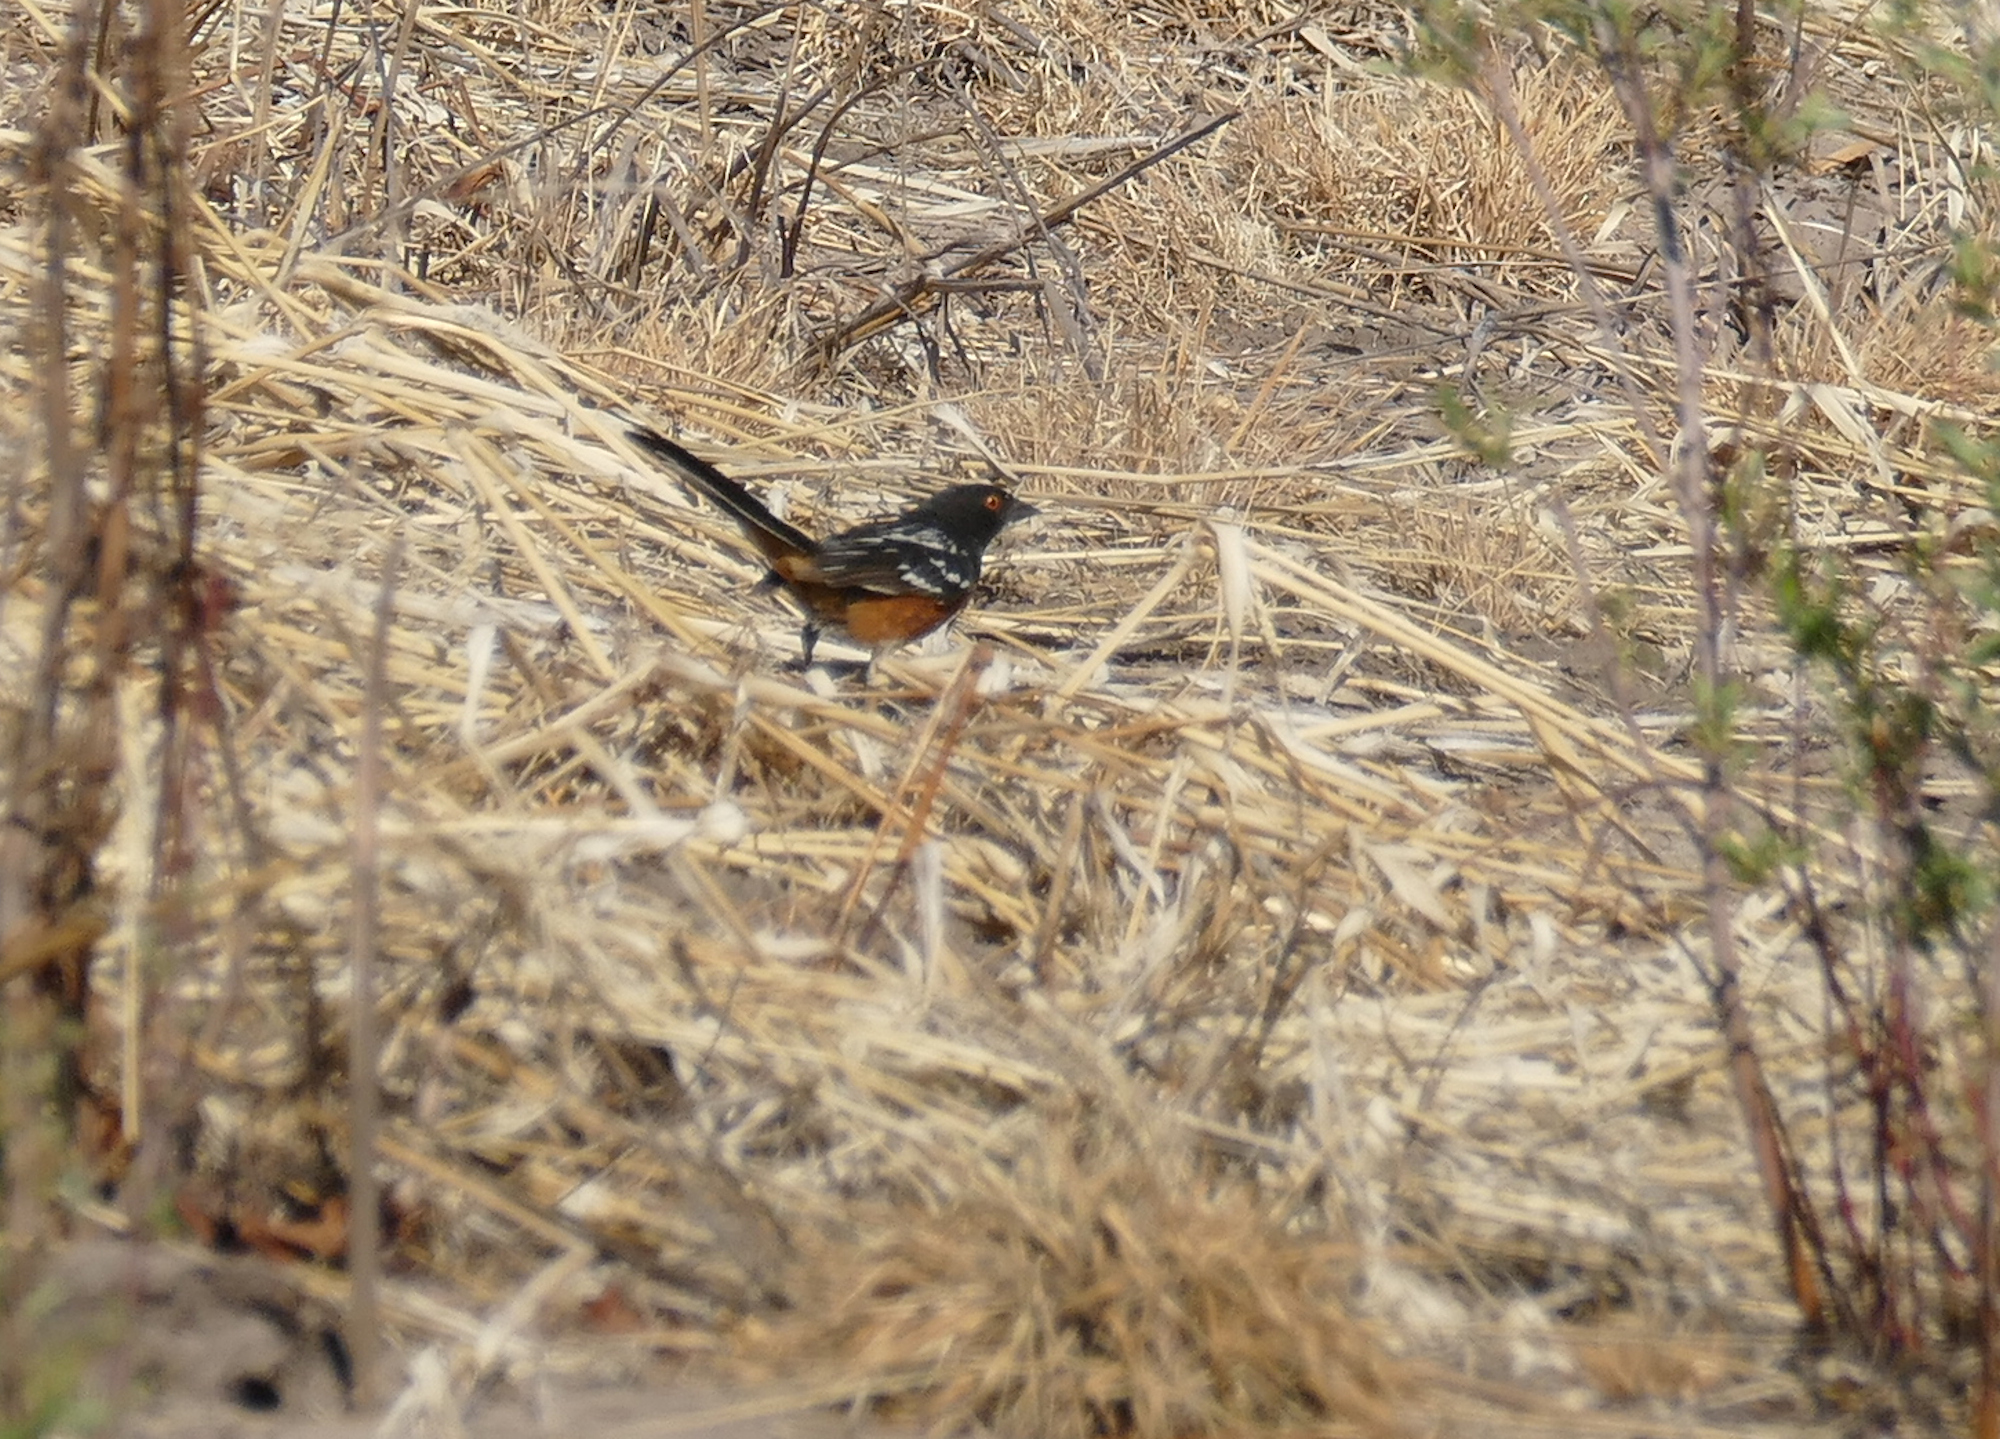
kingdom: Animalia
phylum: Chordata
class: Aves
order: Passeriformes
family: Passerellidae
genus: Pipilo
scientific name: Pipilo maculatus
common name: Spotted towhee
